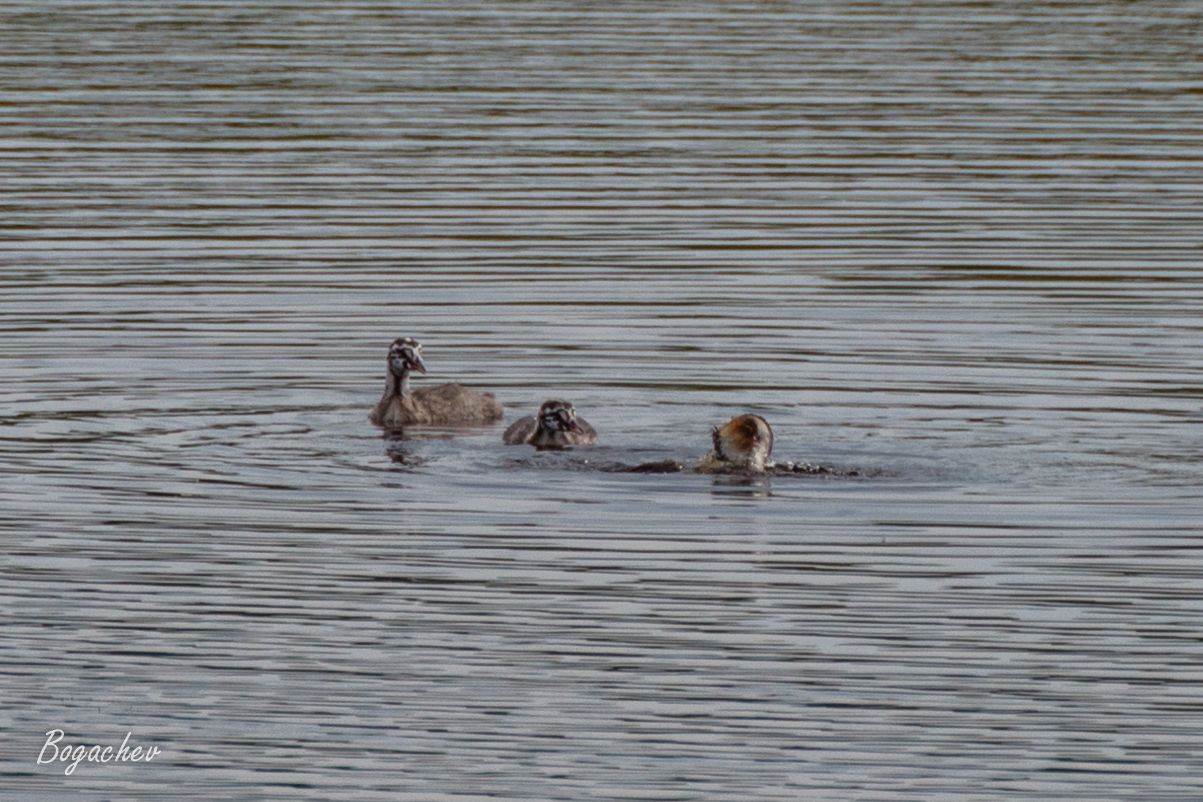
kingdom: Animalia
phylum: Chordata
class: Aves
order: Podicipediformes
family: Podicipedidae
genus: Podiceps
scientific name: Podiceps cristatus
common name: Great crested grebe
